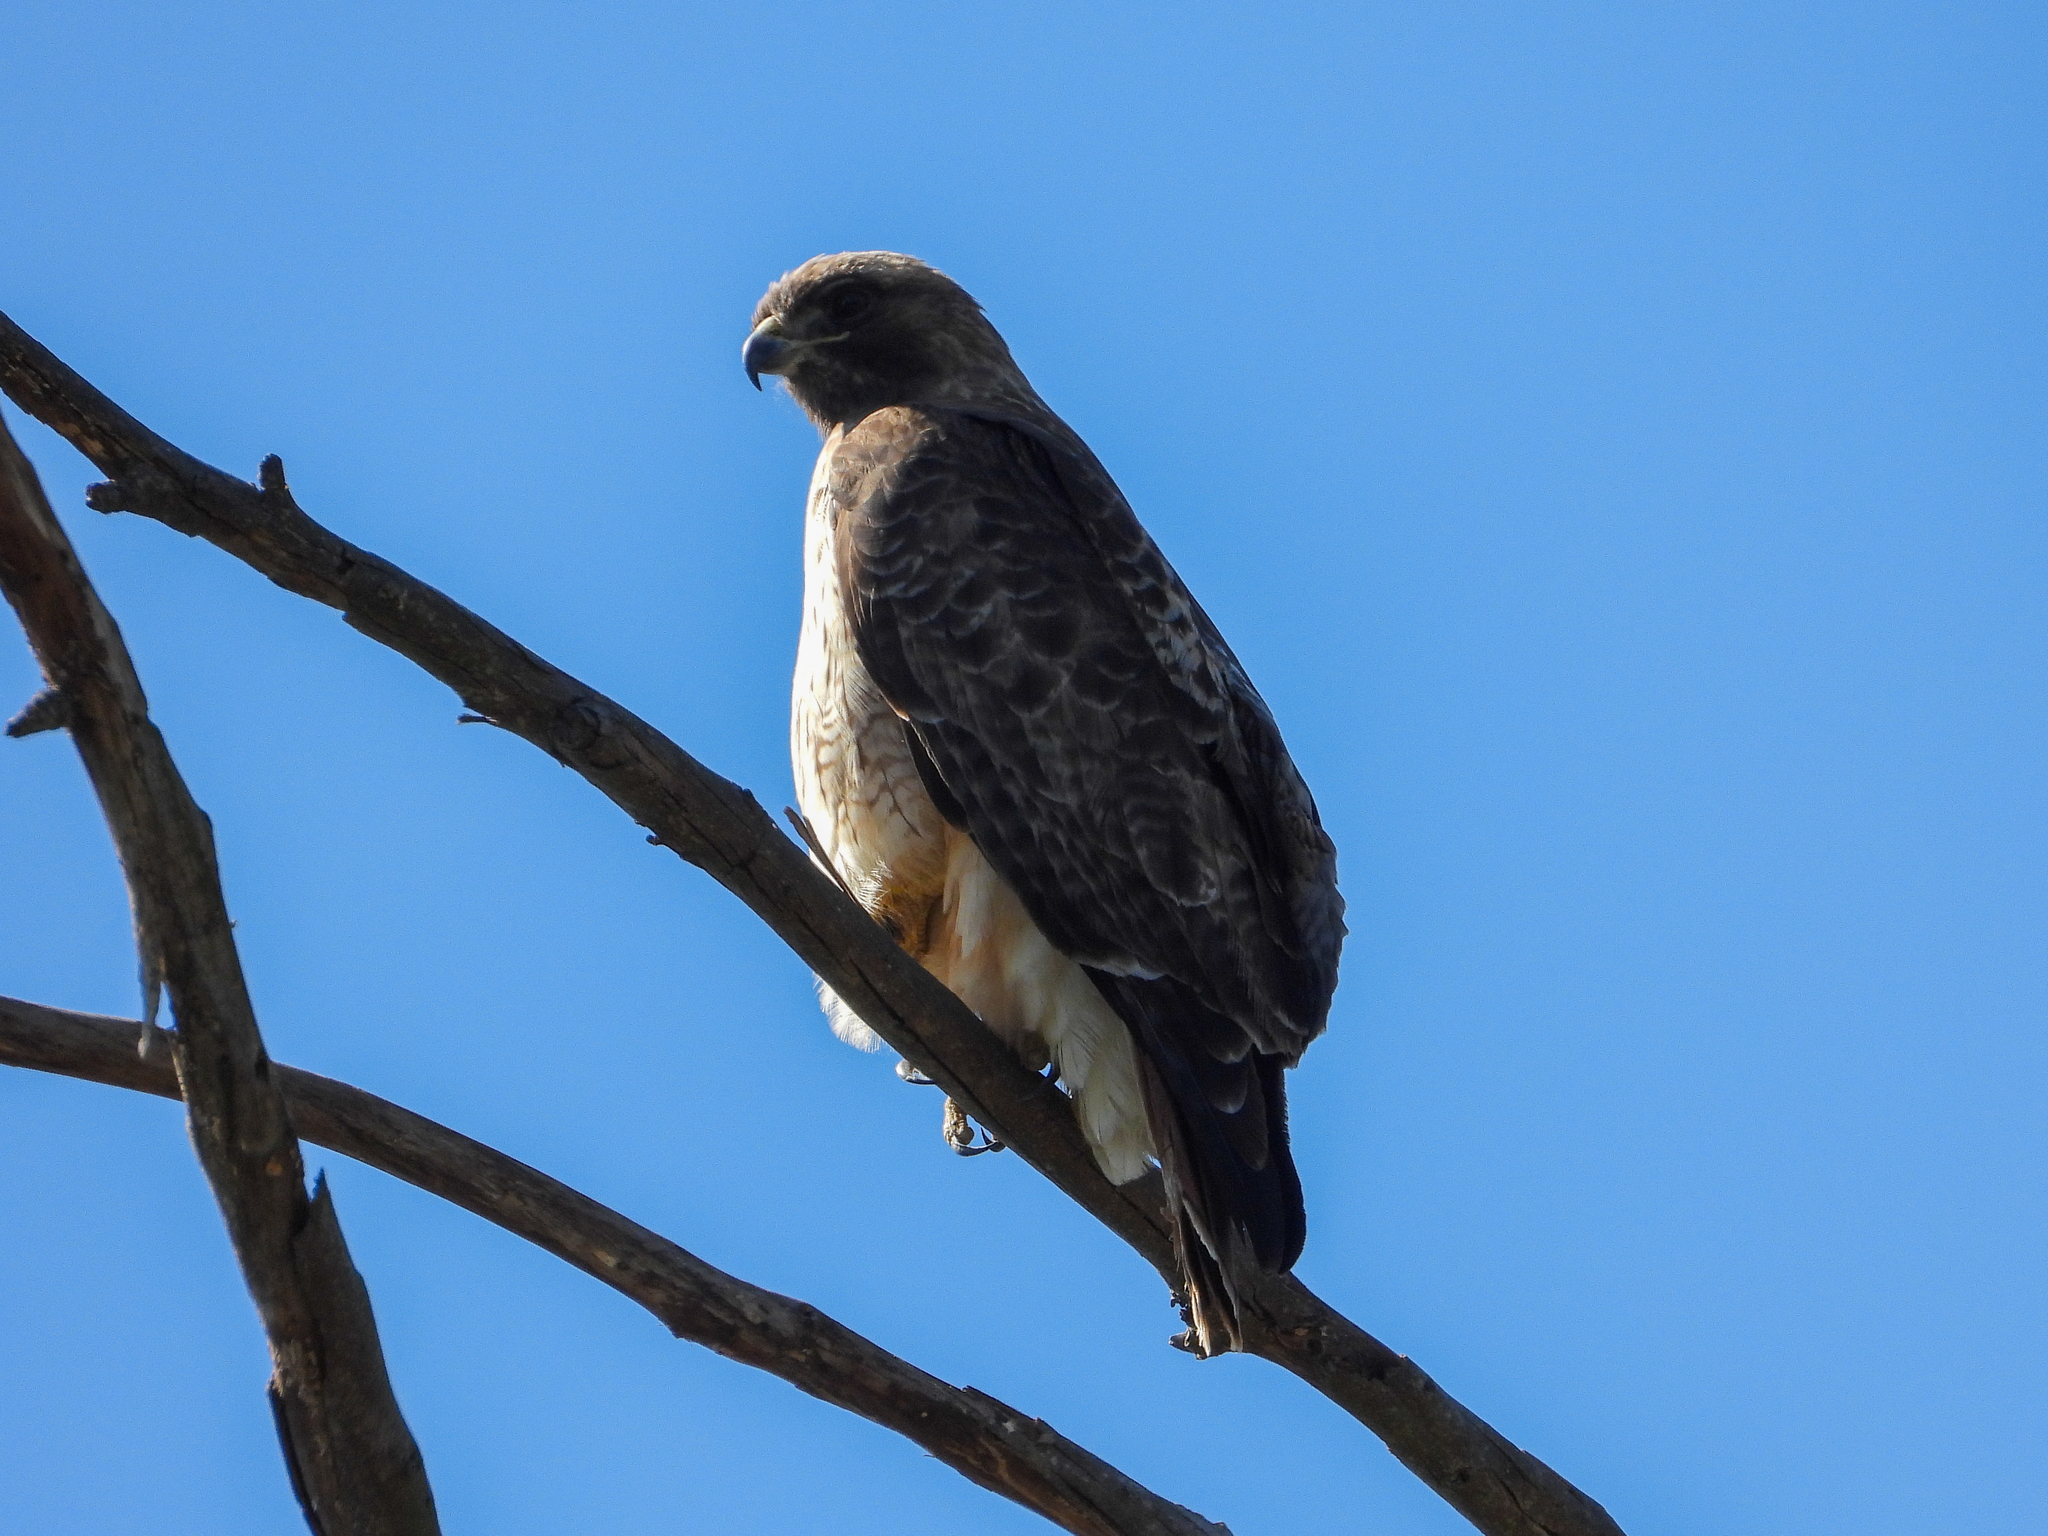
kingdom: Animalia
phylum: Chordata
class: Aves
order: Accipitriformes
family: Accipitridae
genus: Buteo
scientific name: Buteo jamaicensis
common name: Red-tailed hawk
